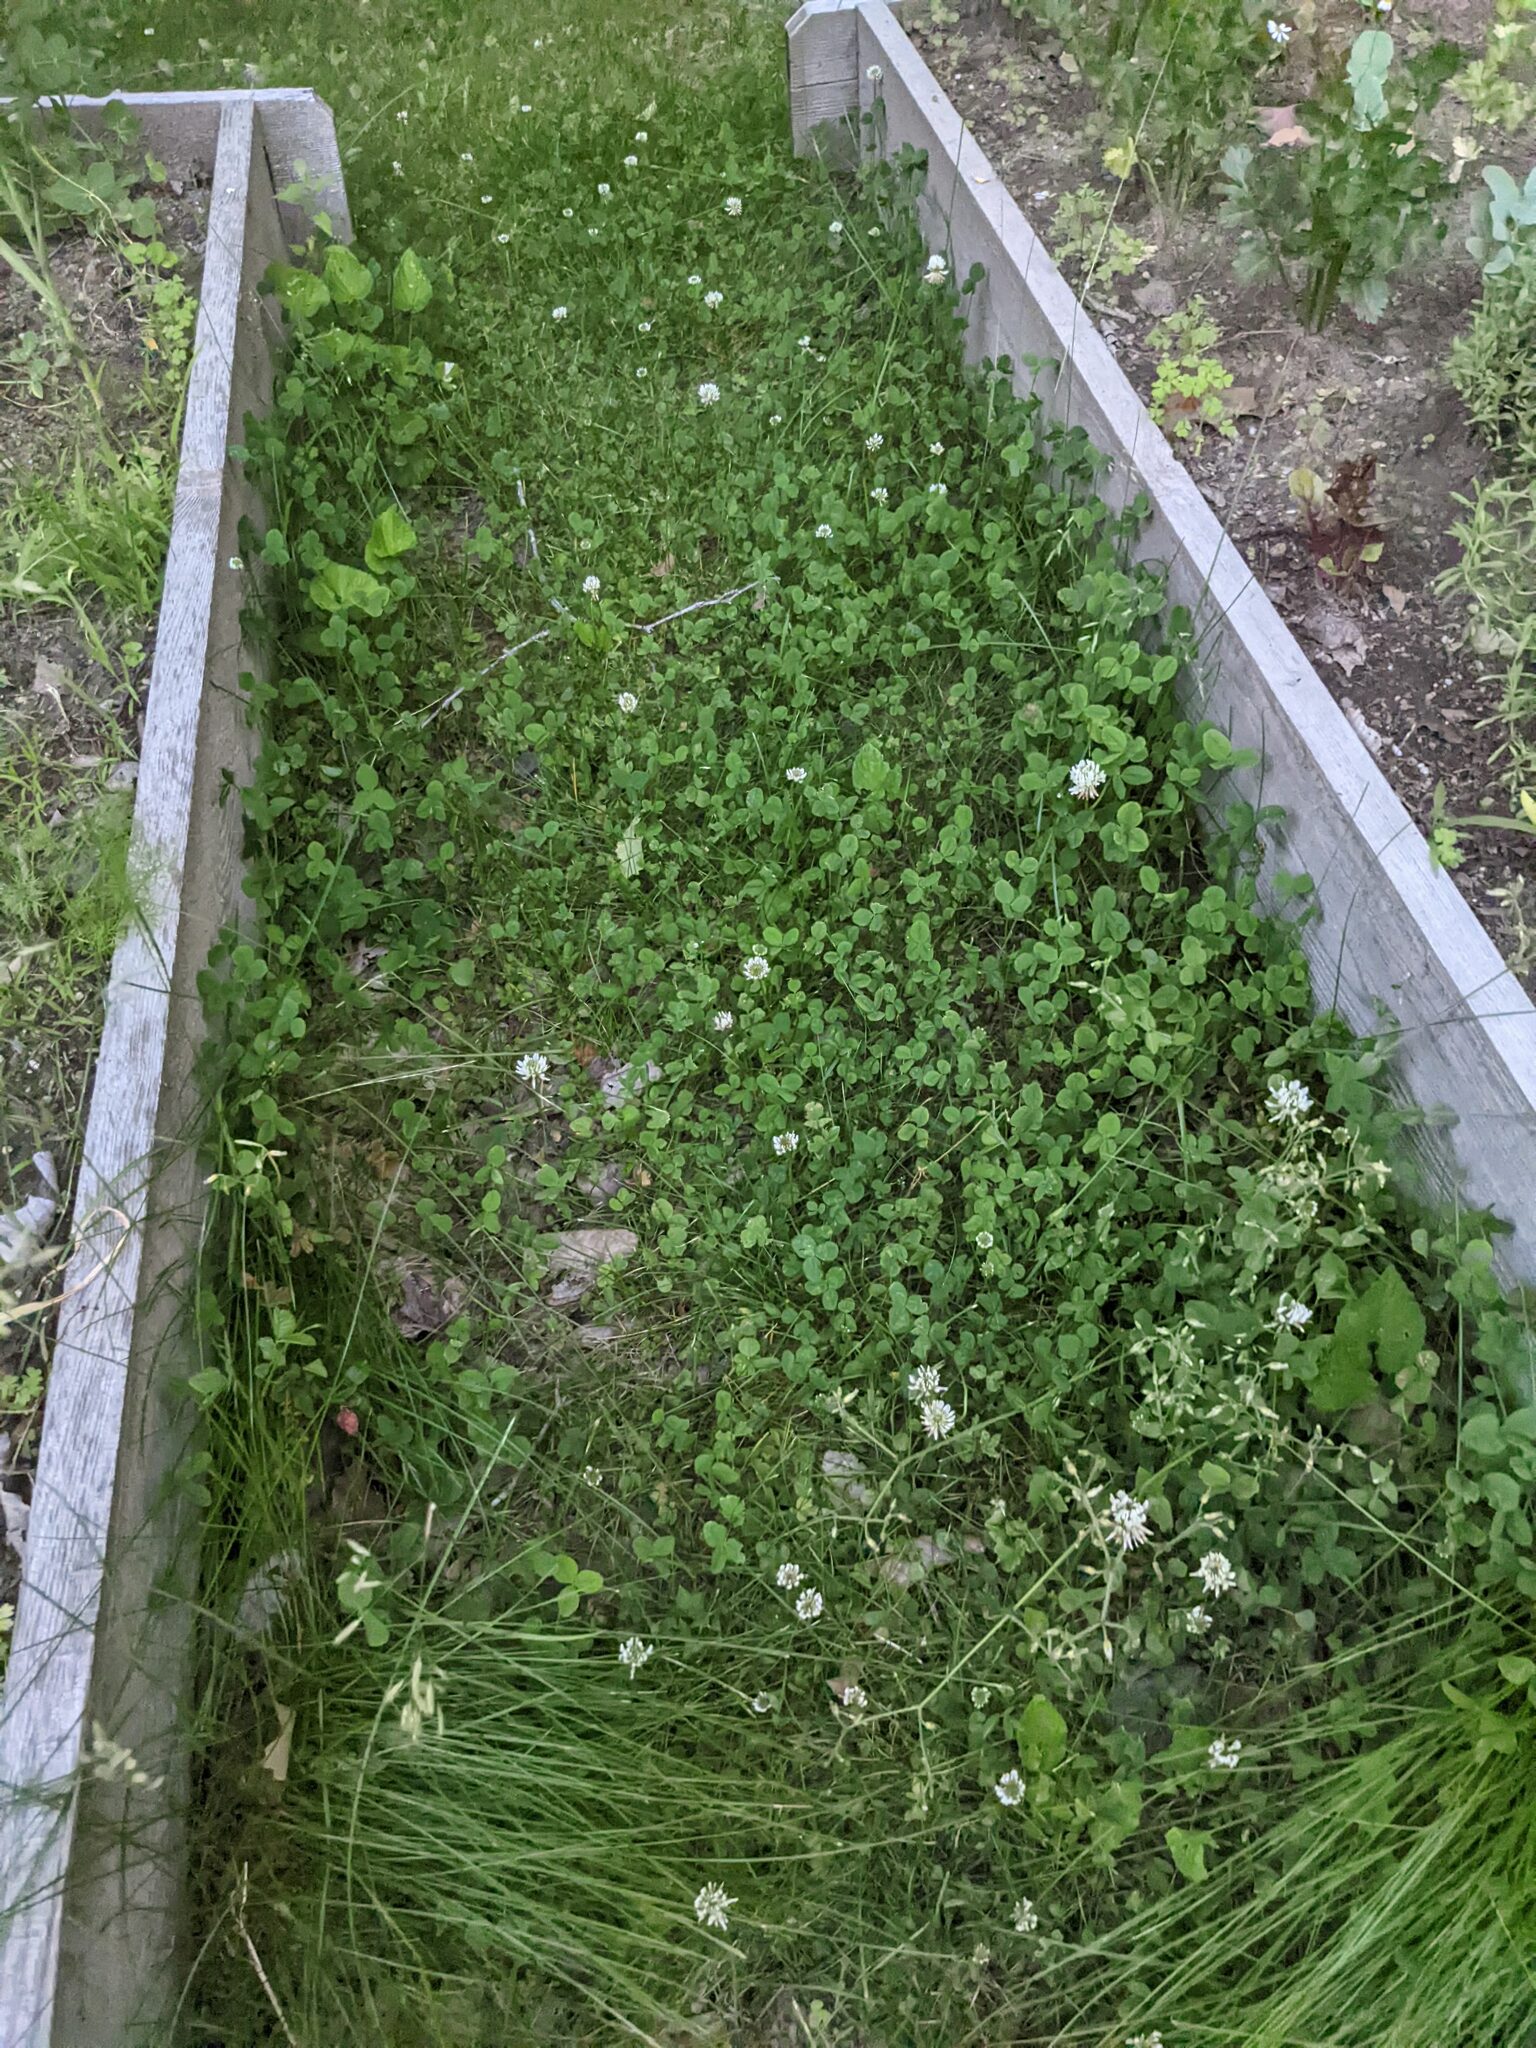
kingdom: Plantae
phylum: Tracheophyta
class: Magnoliopsida
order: Fabales
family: Fabaceae
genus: Trifolium
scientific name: Trifolium repens
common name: White clover
